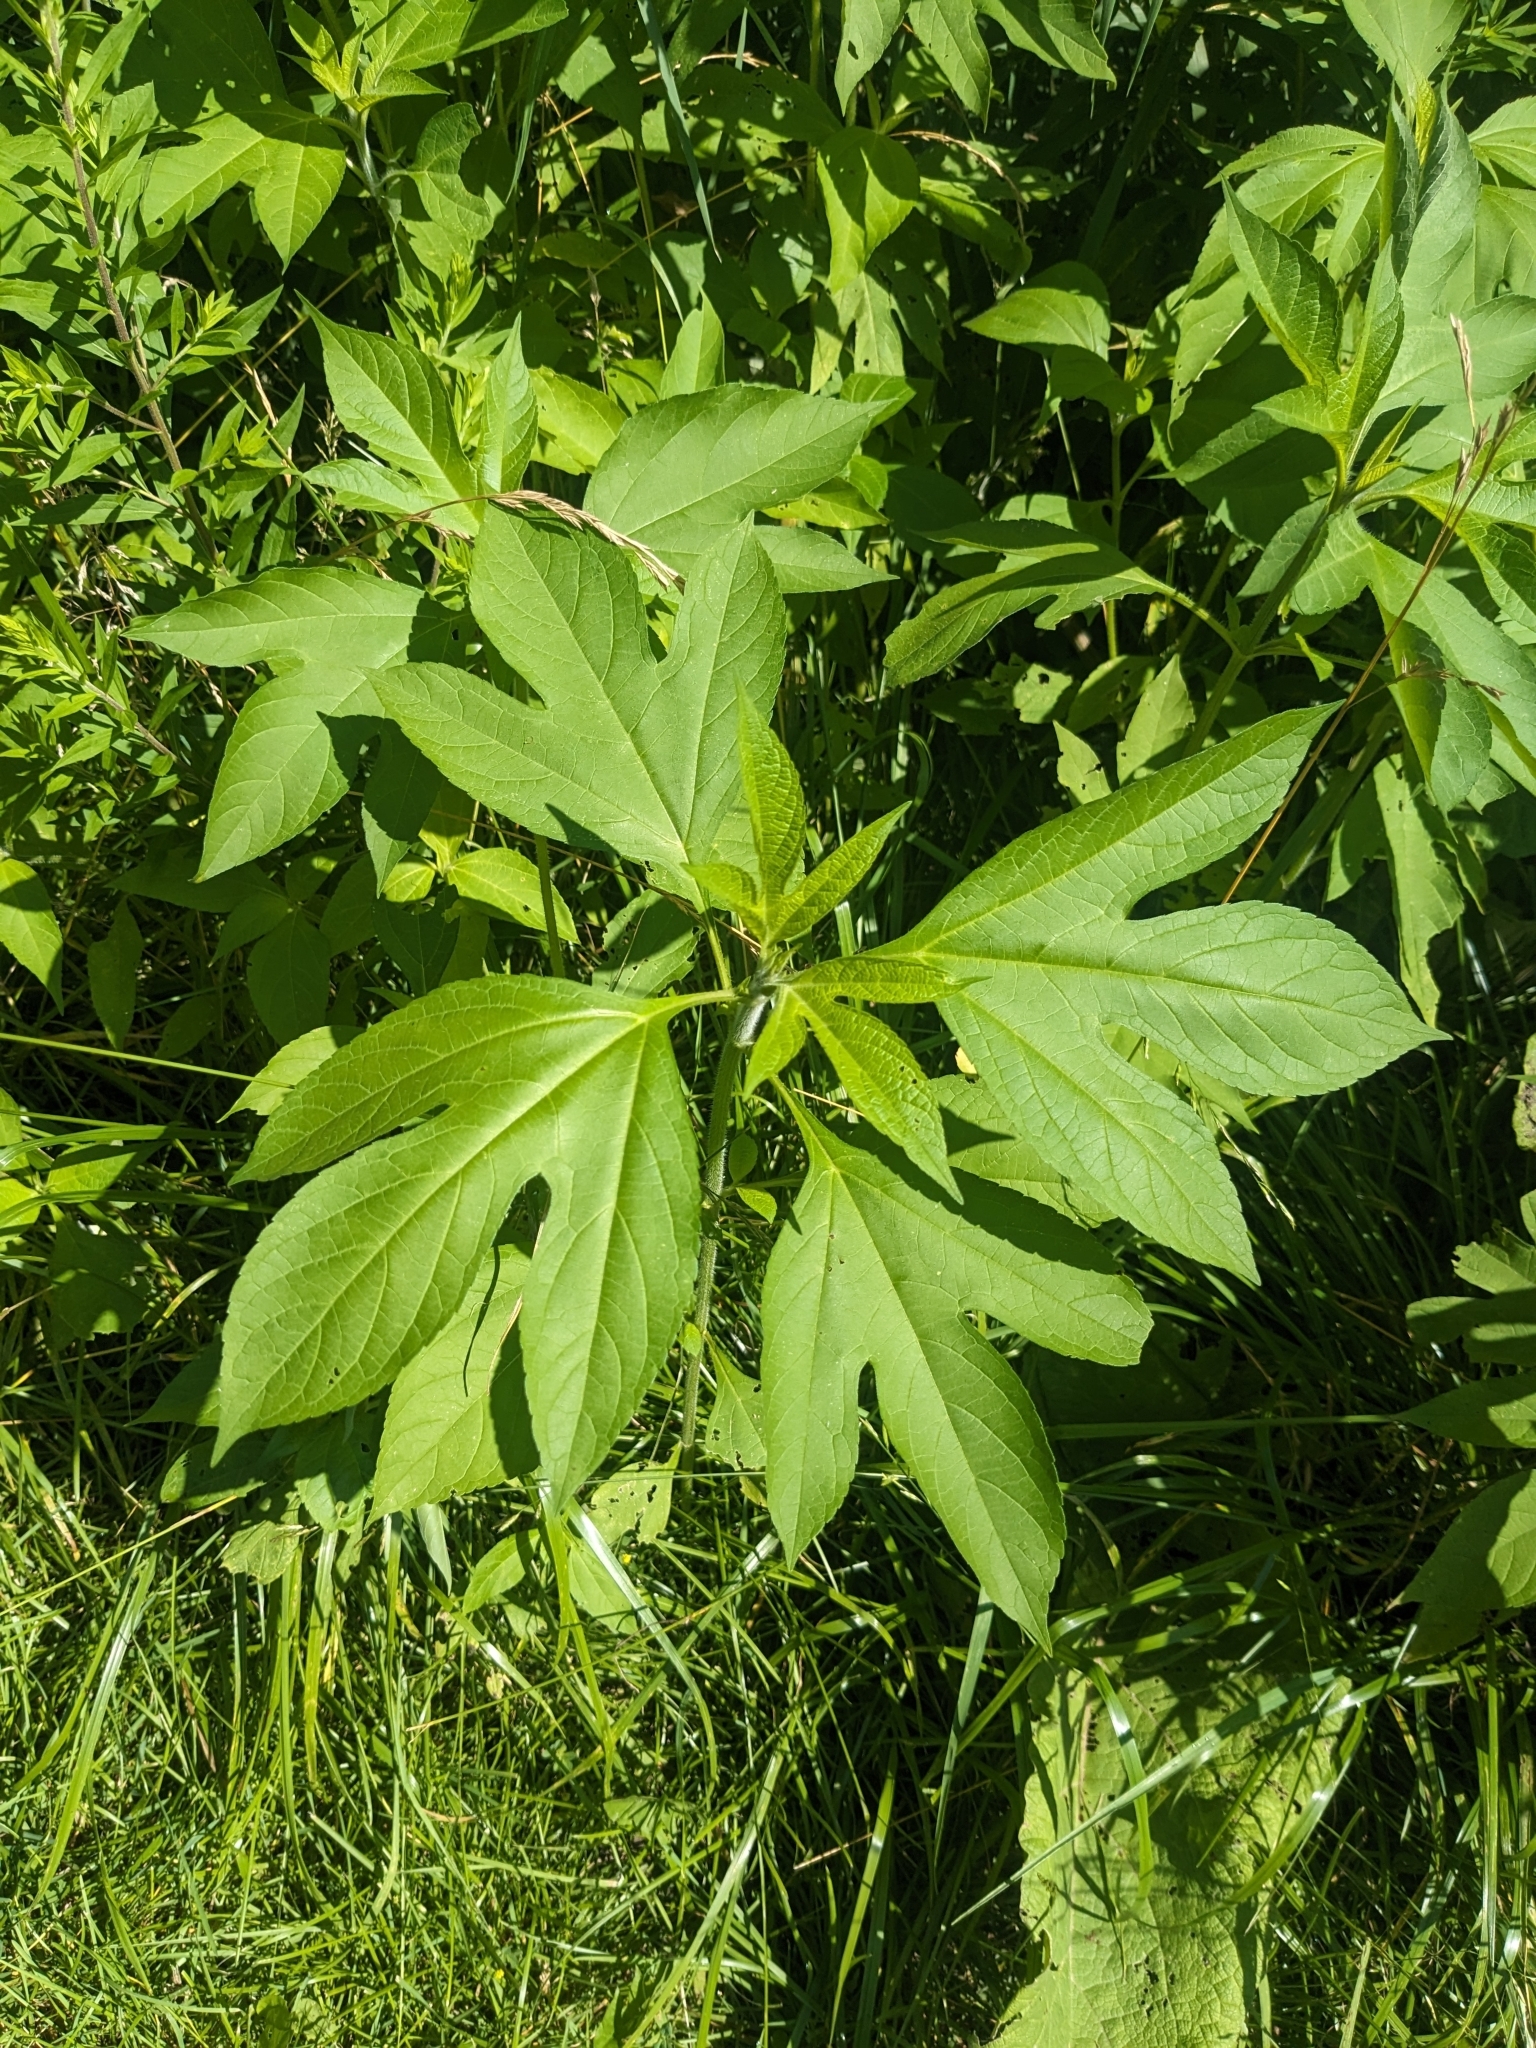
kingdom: Plantae
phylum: Tracheophyta
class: Magnoliopsida
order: Asterales
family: Asteraceae
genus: Ambrosia
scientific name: Ambrosia trifida
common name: Giant ragweed
